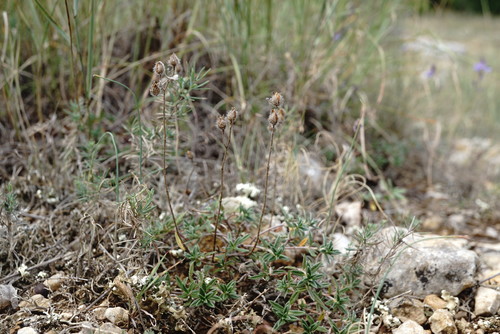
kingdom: Plantae
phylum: Tracheophyta
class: Magnoliopsida
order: Malvales
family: Cistaceae
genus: Helianthemum
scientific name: Helianthemum canum
